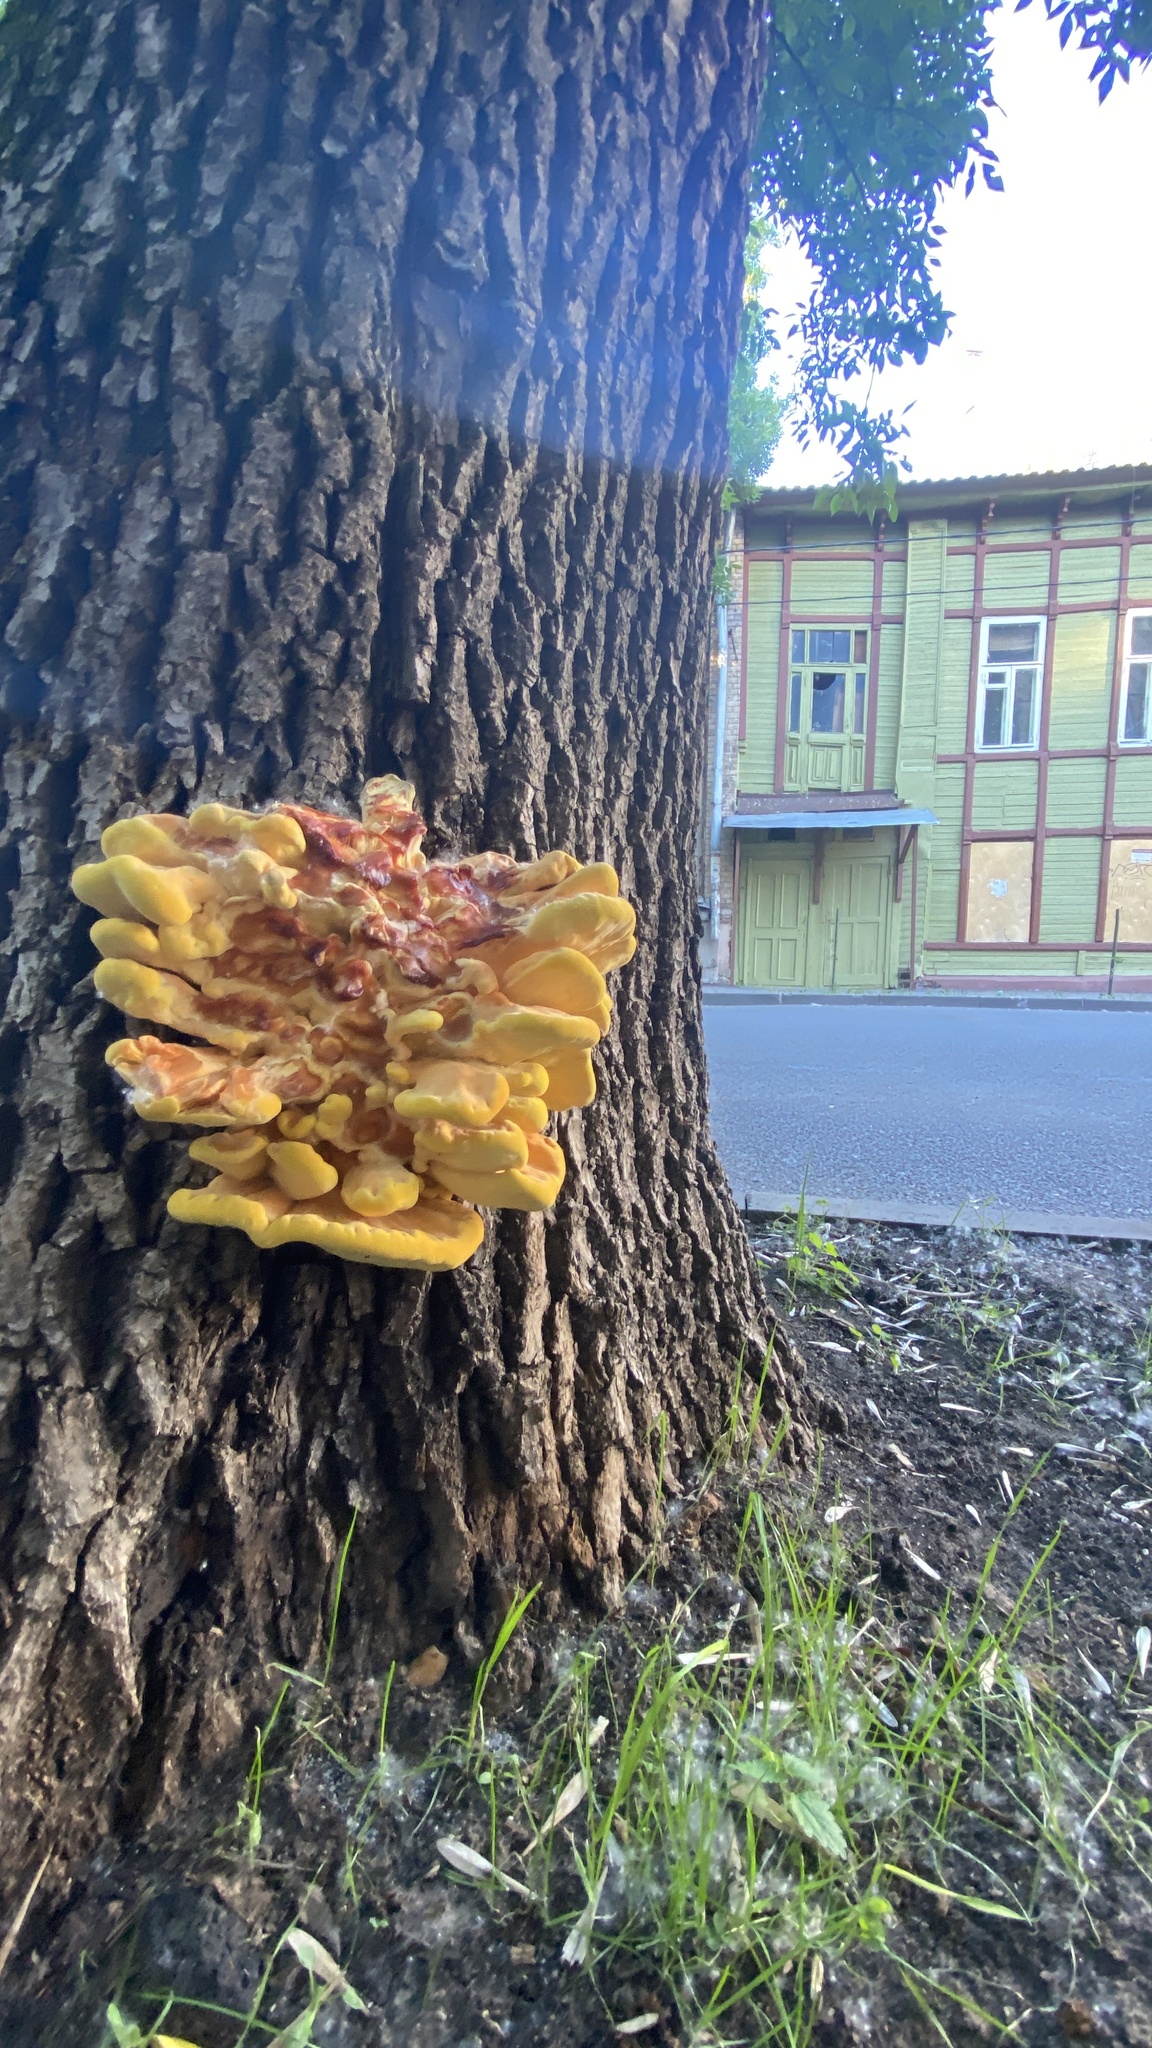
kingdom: Fungi
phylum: Basidiomycota
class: Agaricomycetes
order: Polyporales
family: Laetiporaceae
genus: Laetiporus
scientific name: Laetiporus sulphureus
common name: Chicken of the woods
